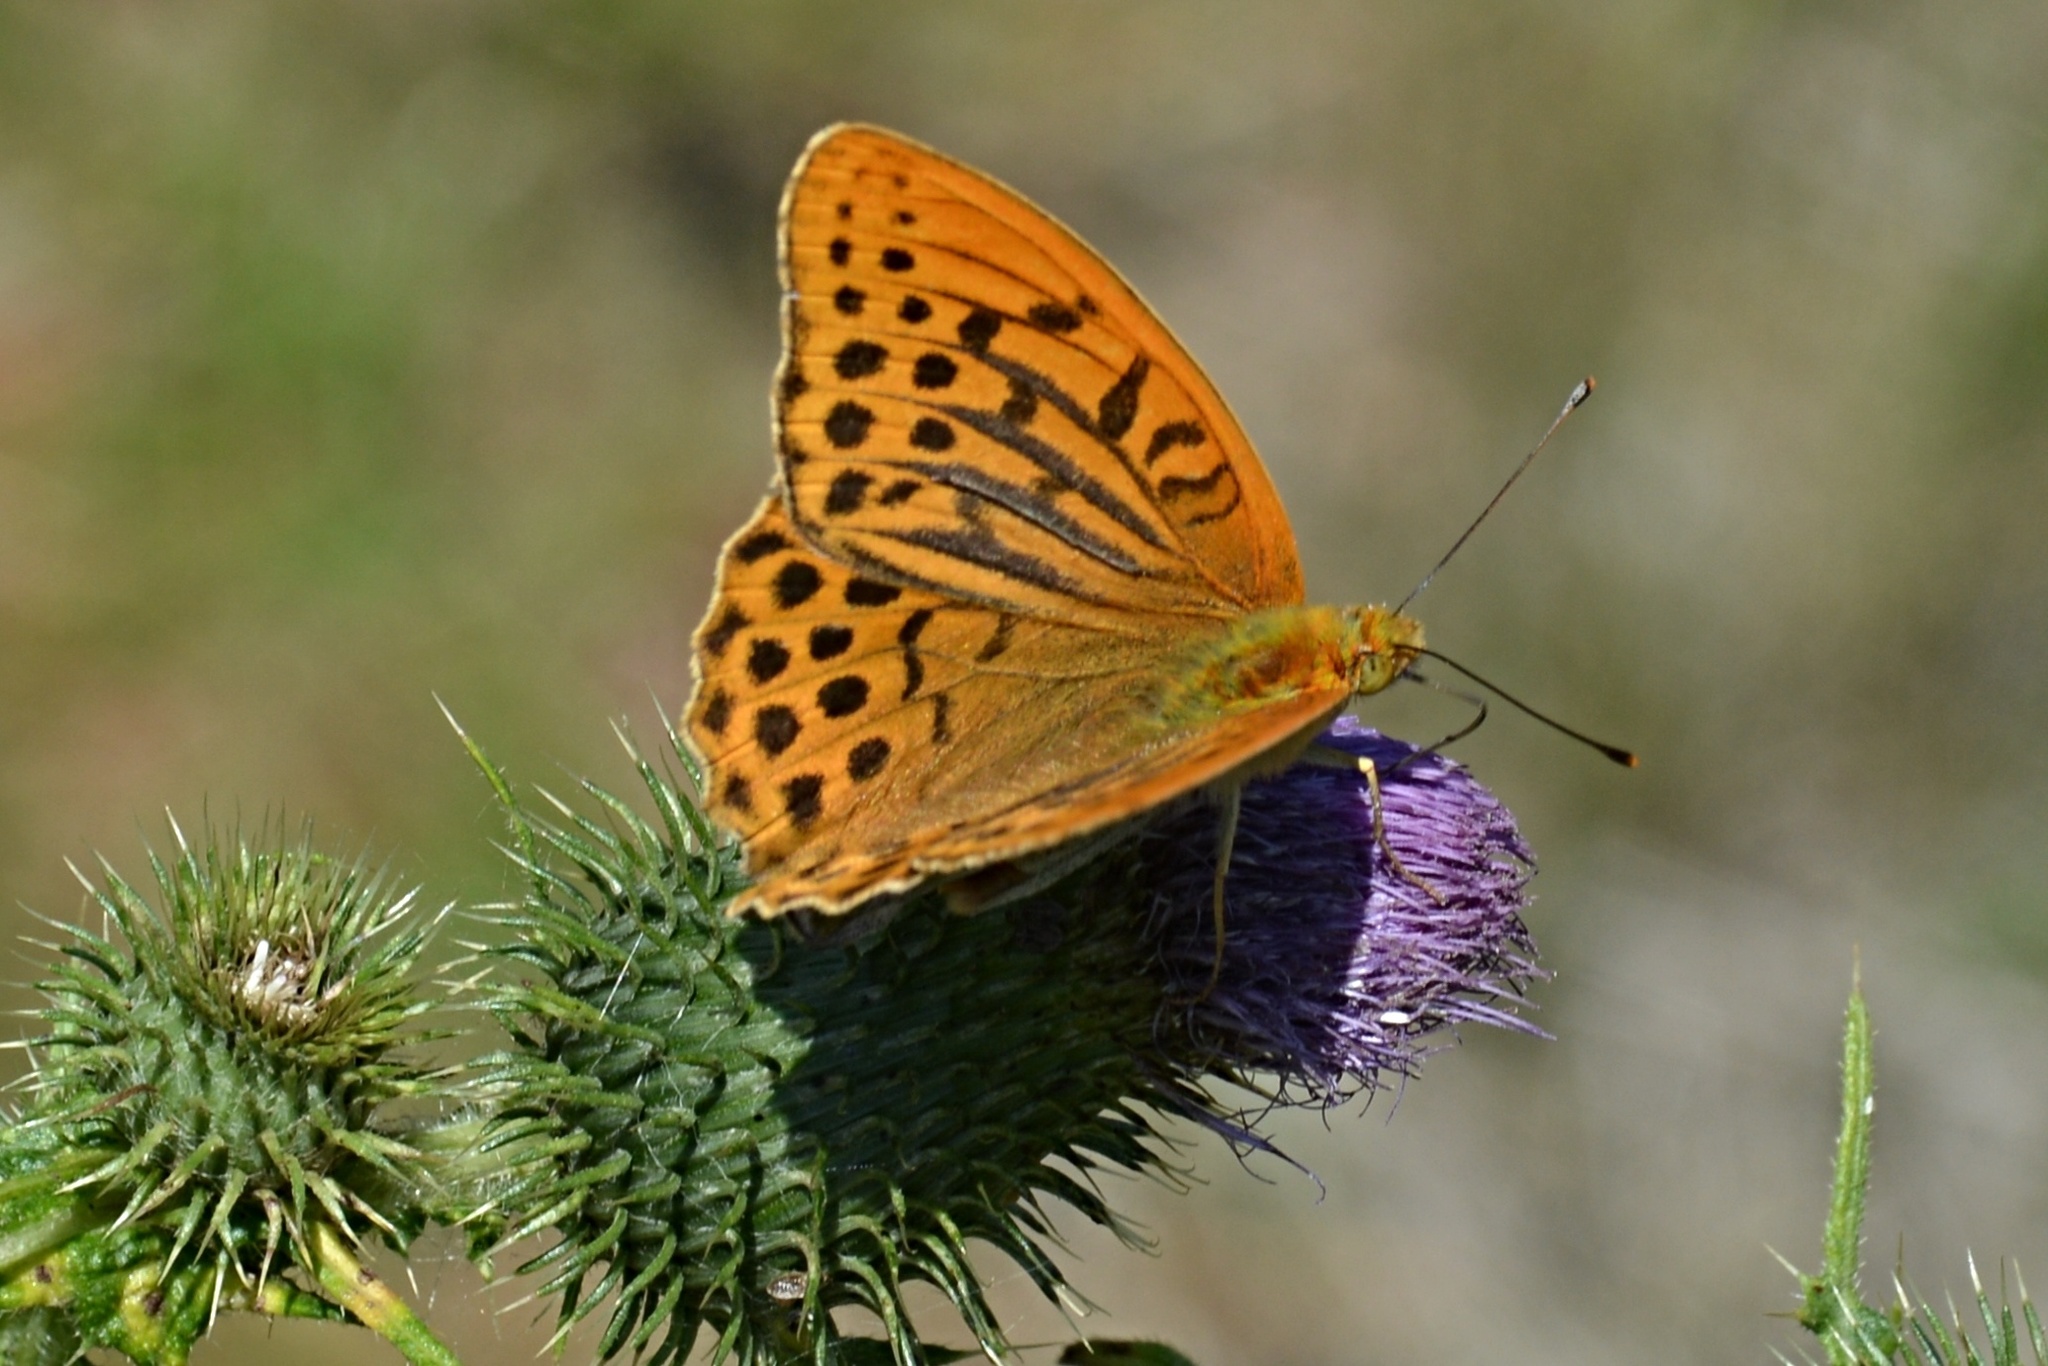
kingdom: Animalia
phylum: Arthropoda
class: Insecta
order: Lepidoptera
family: Nymphalidae
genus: Argynnis
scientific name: Argynnis paphia
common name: Silver-washed fritillary
